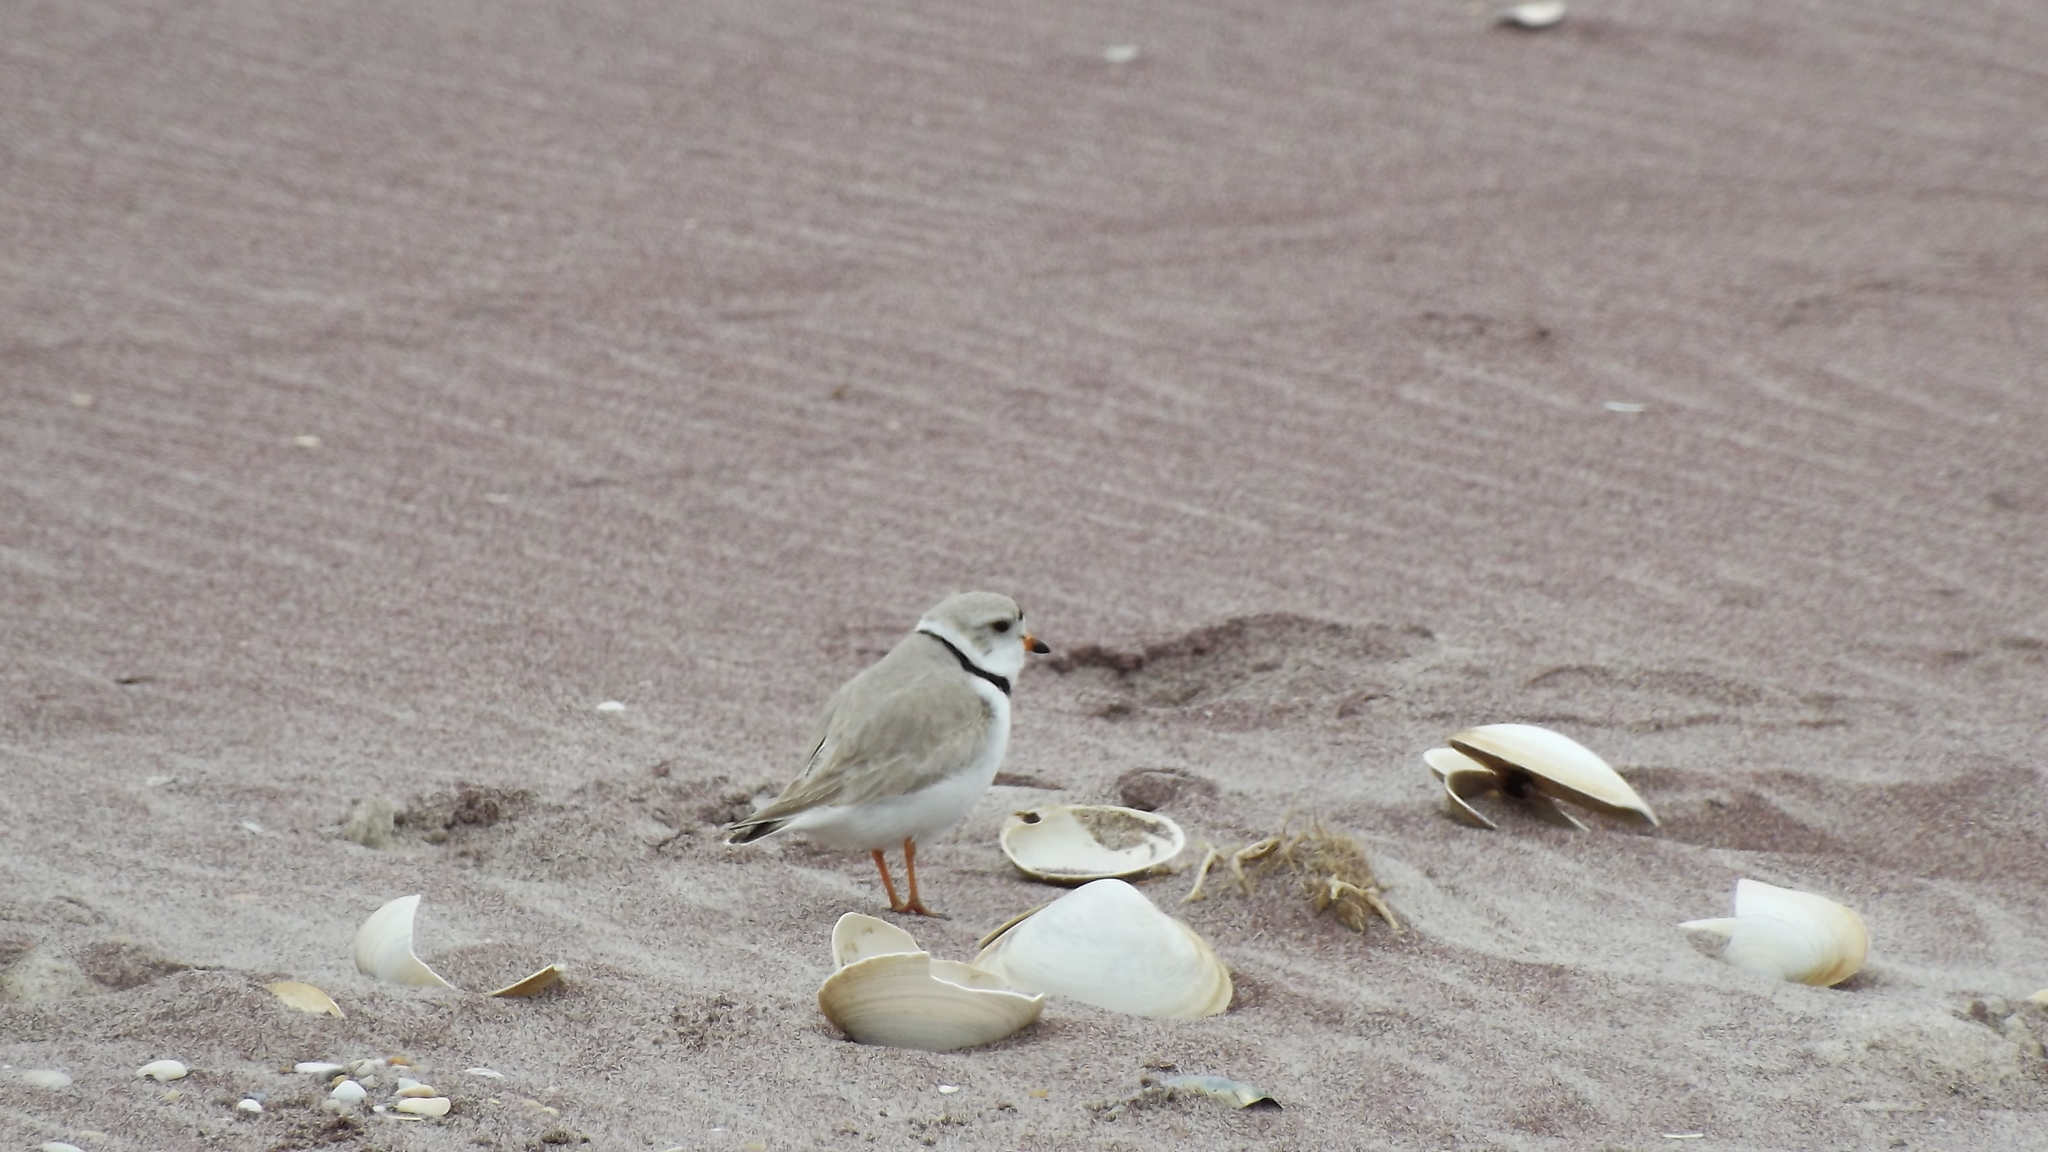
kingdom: Animalia
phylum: Chordata
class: Aves
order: Charadriiformes
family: Charadriidae
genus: Charadrius
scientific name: Charadrius melodus
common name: Piping plover
